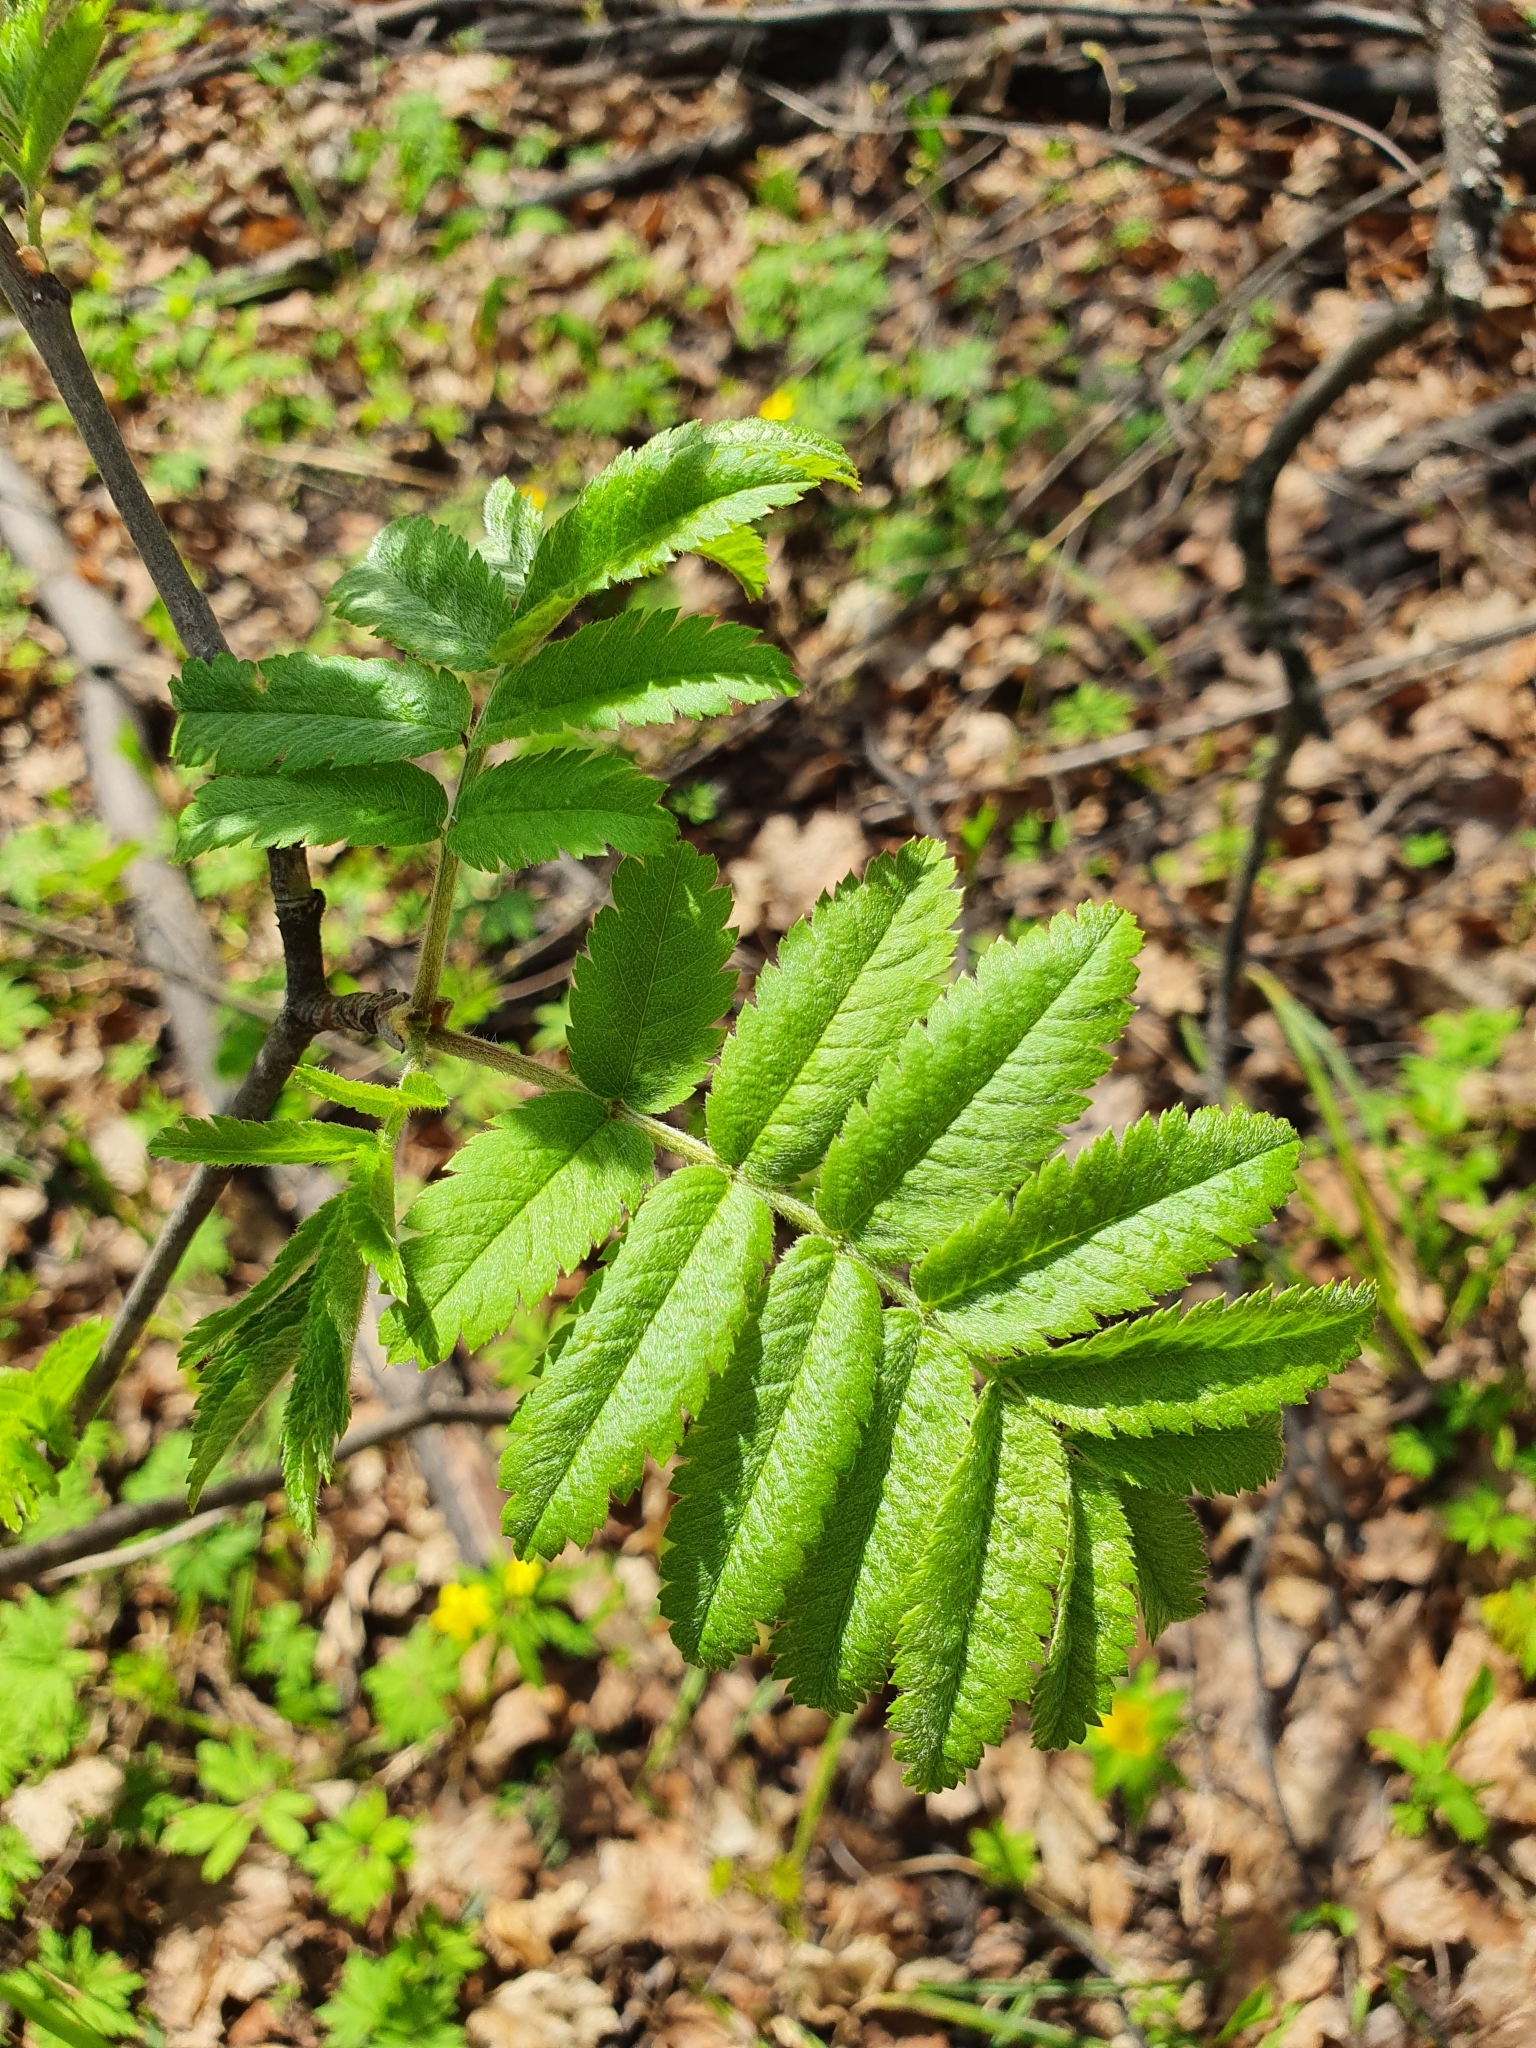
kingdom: Plantae
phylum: Tracheophyta
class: Magnoliopsida
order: Rosales
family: Rosaceae
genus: Sorbus
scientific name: Sorbus aucuparia
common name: Rowan
